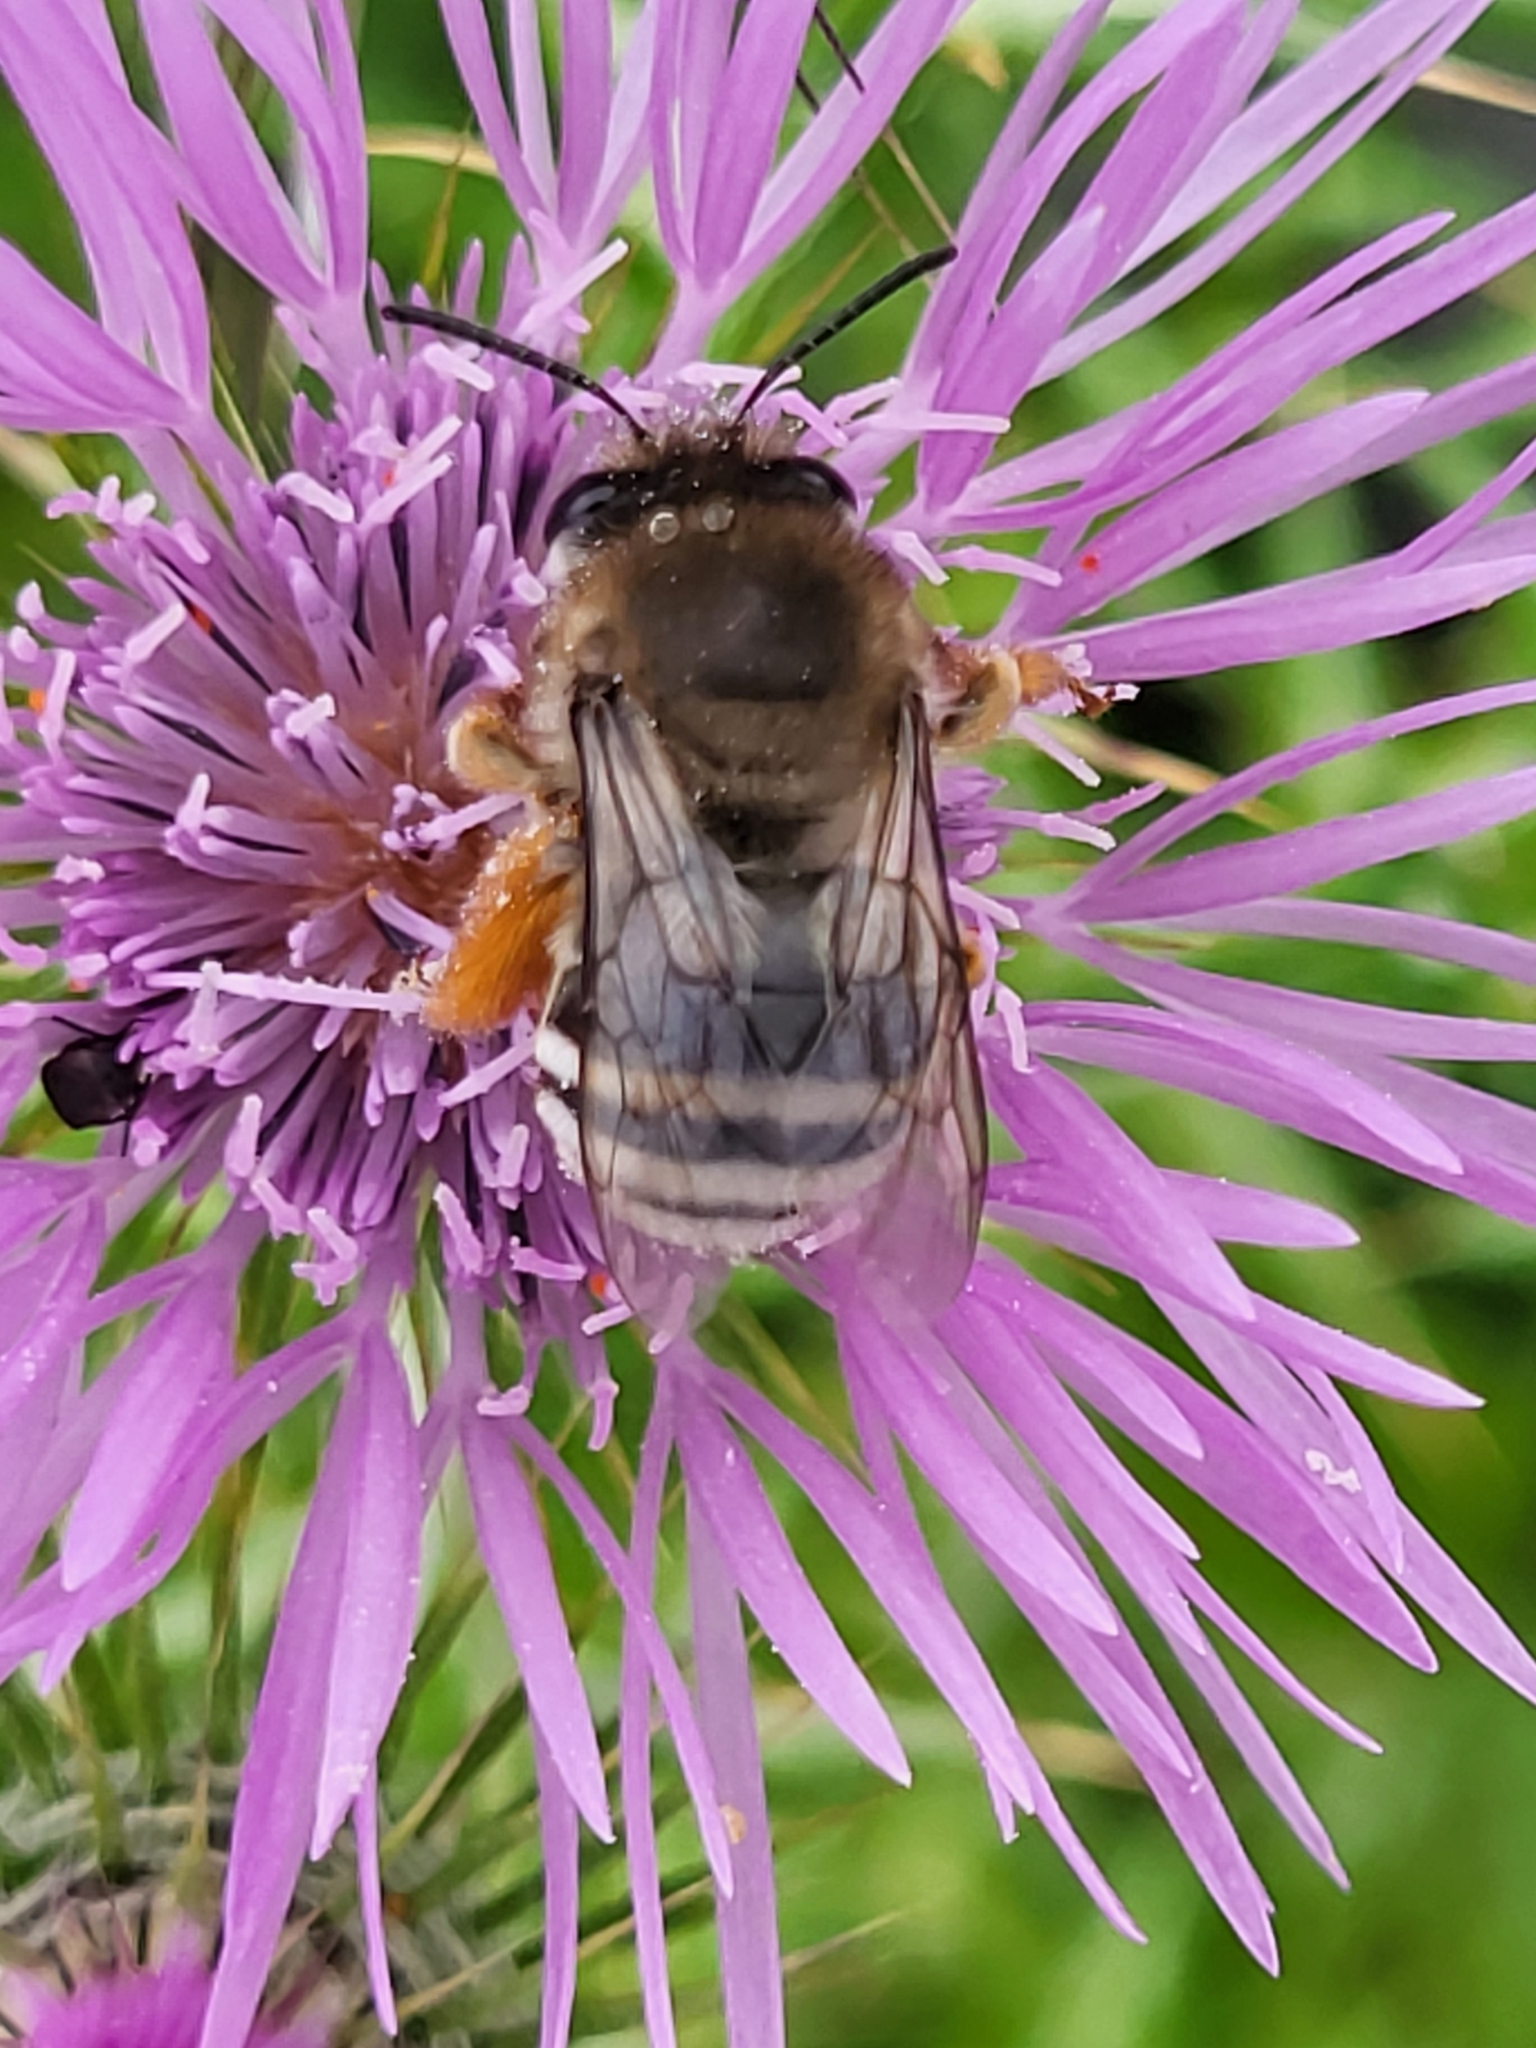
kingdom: Animalia
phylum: Arthropoda
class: Insecta
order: Hymenoptera
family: Apidae
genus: Eucera
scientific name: Eucera gracilipes
